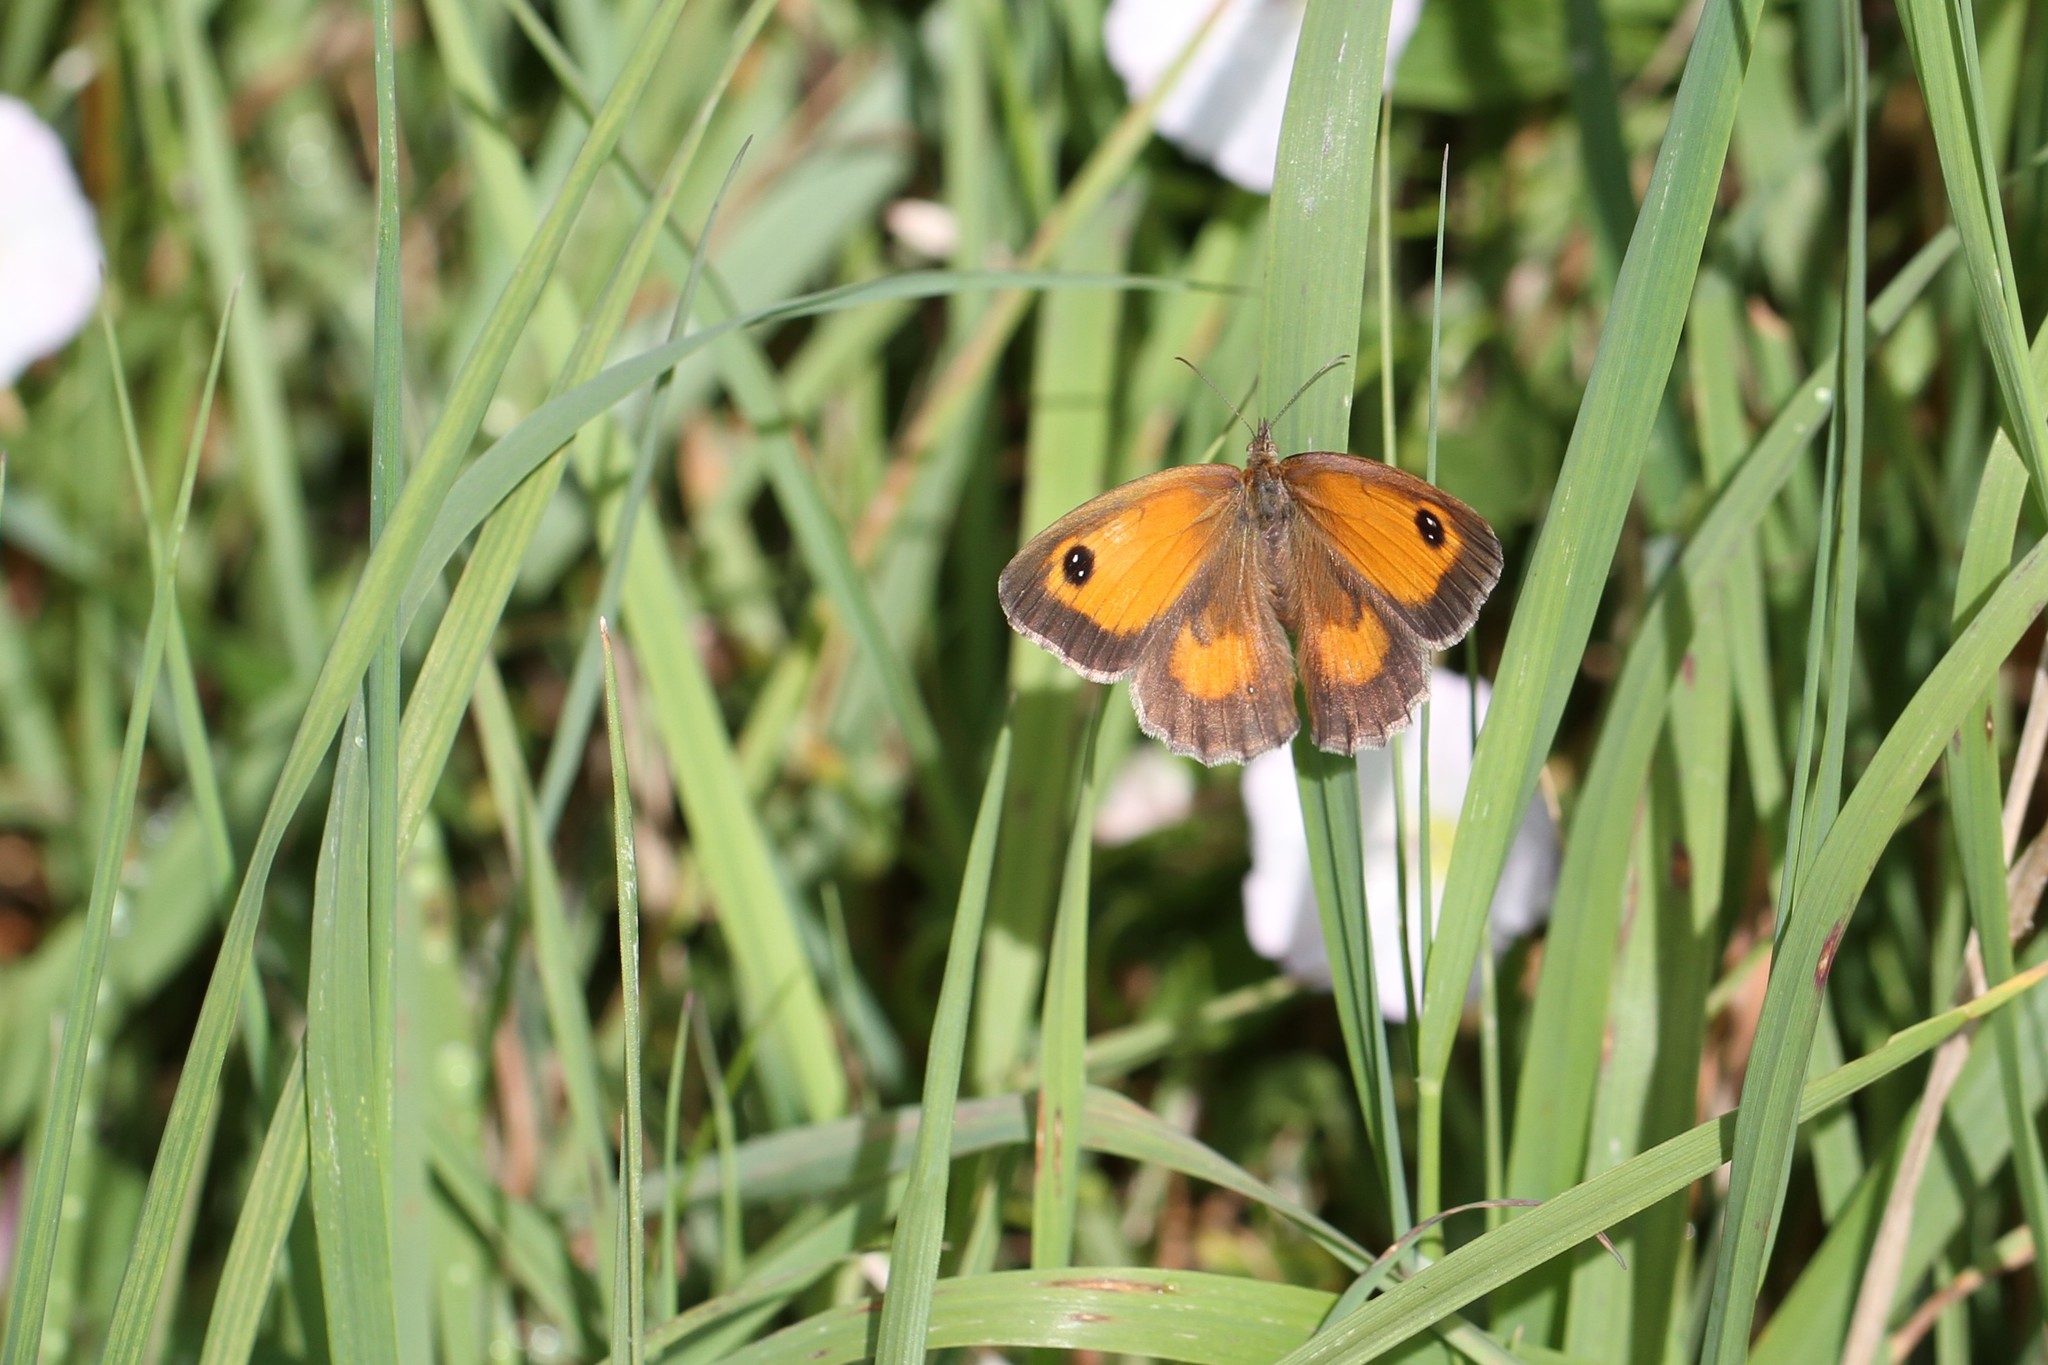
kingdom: Animalia
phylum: Arthropoda
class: Insecta
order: Lepidoptera
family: Nymphalidae
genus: Pyronia
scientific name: Pyronia tithonus
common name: Gatekeeper
